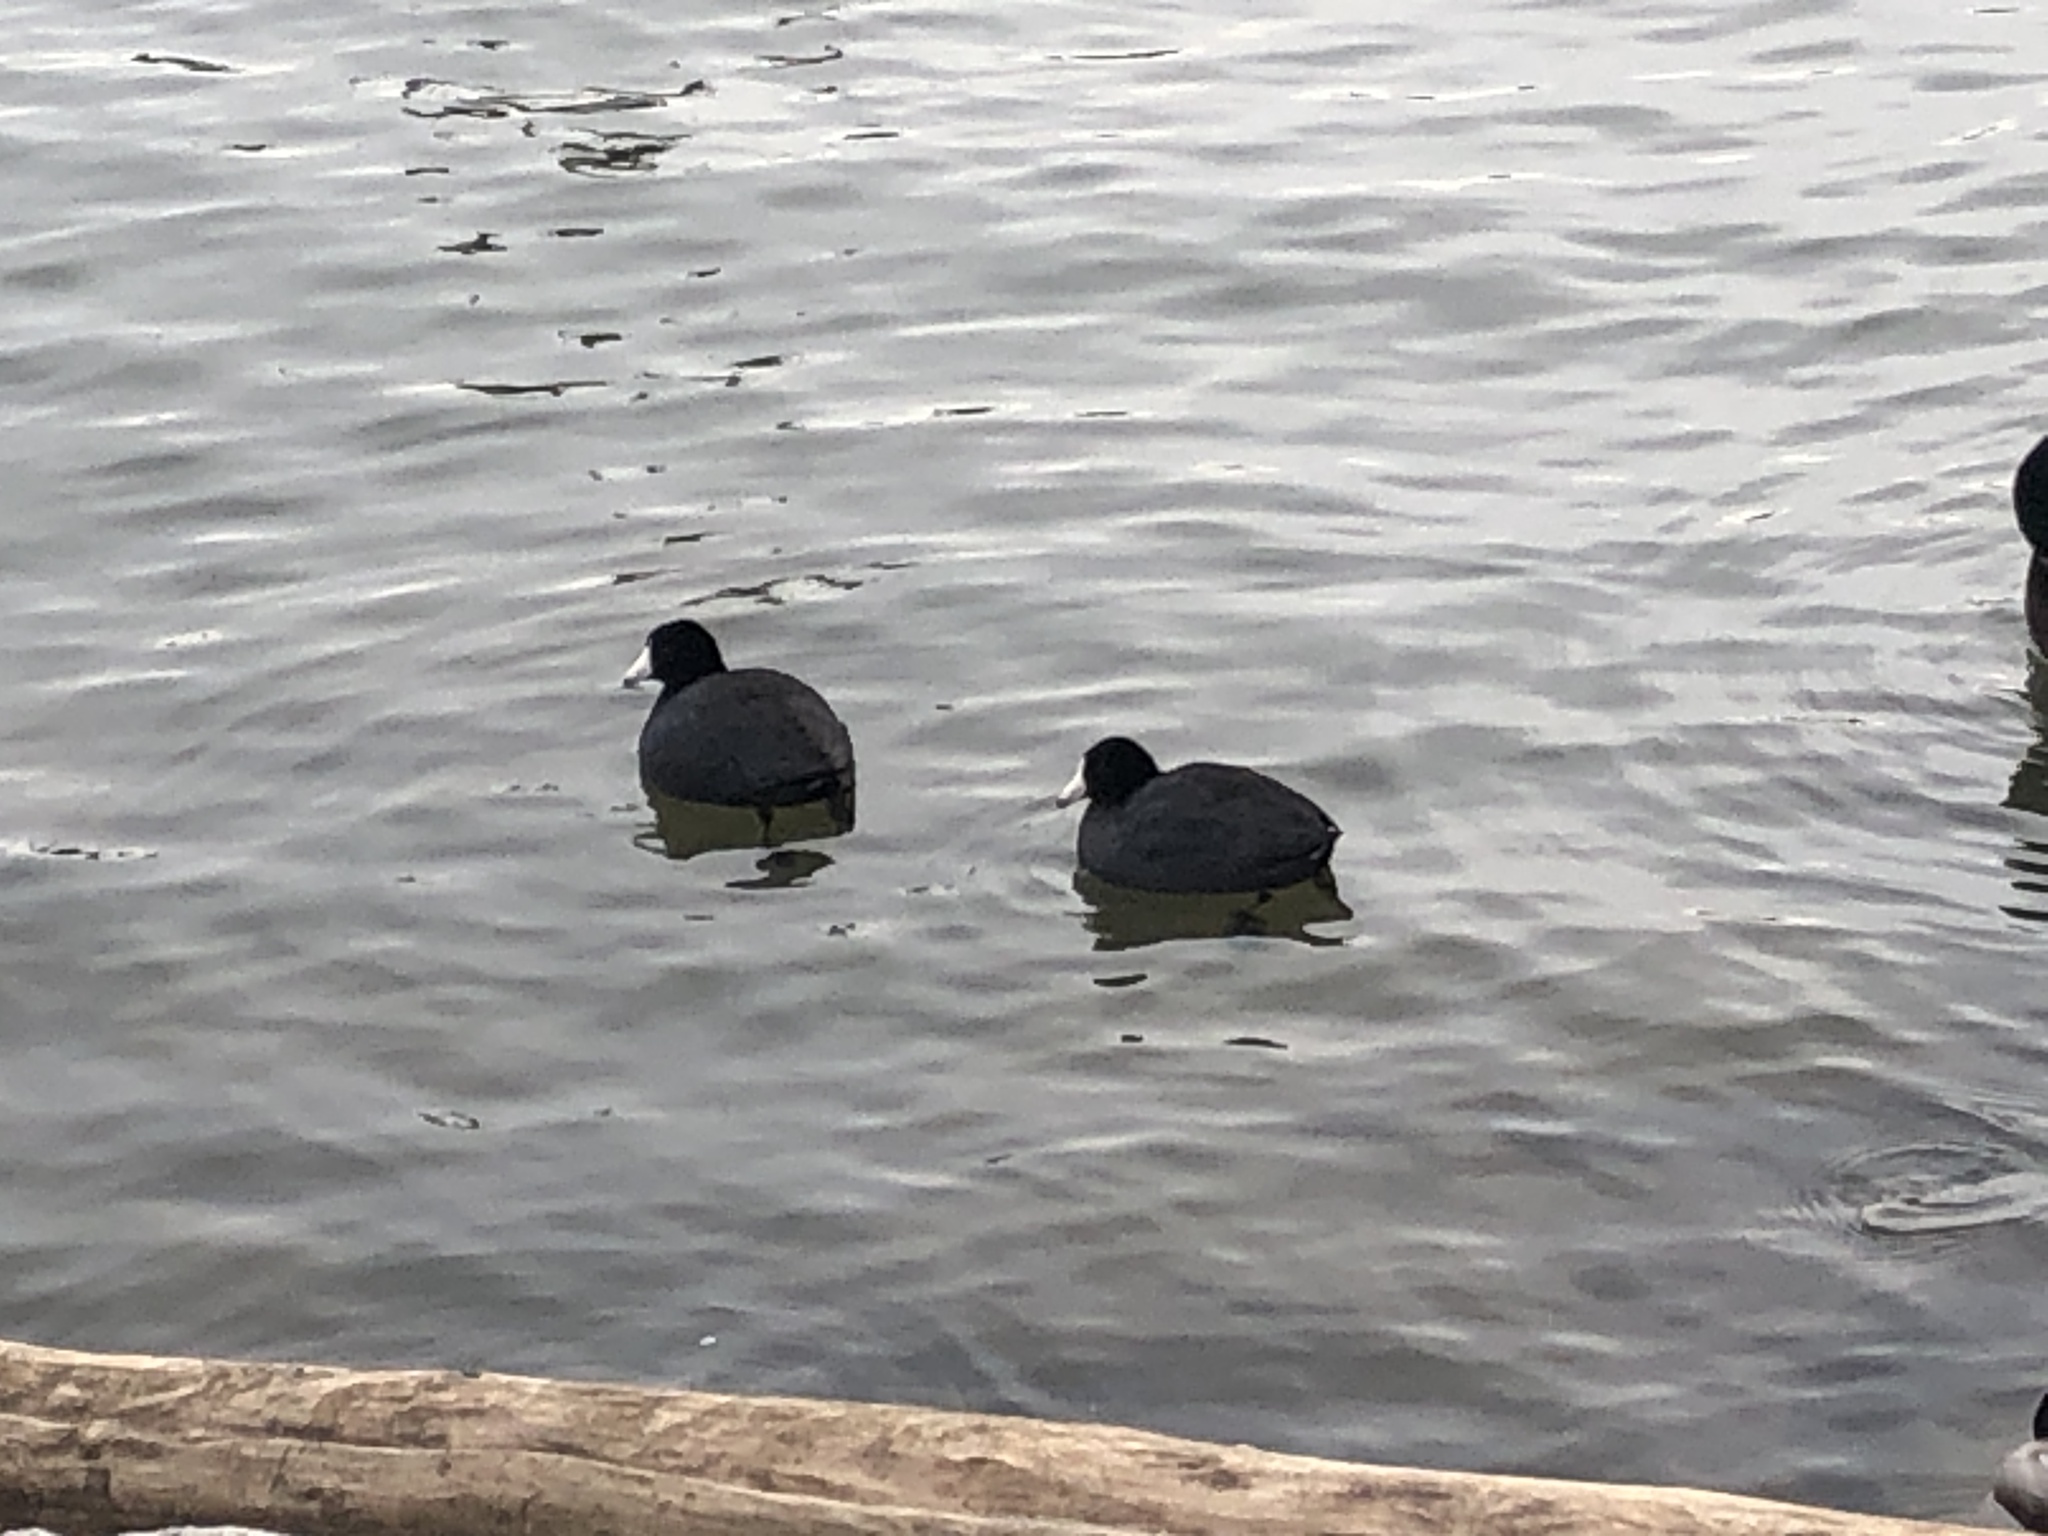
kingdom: Animalia
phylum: Chordata
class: Aves
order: Gruiformes
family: Rallidae
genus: Fulica
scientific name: Fulica americana
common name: American coot
